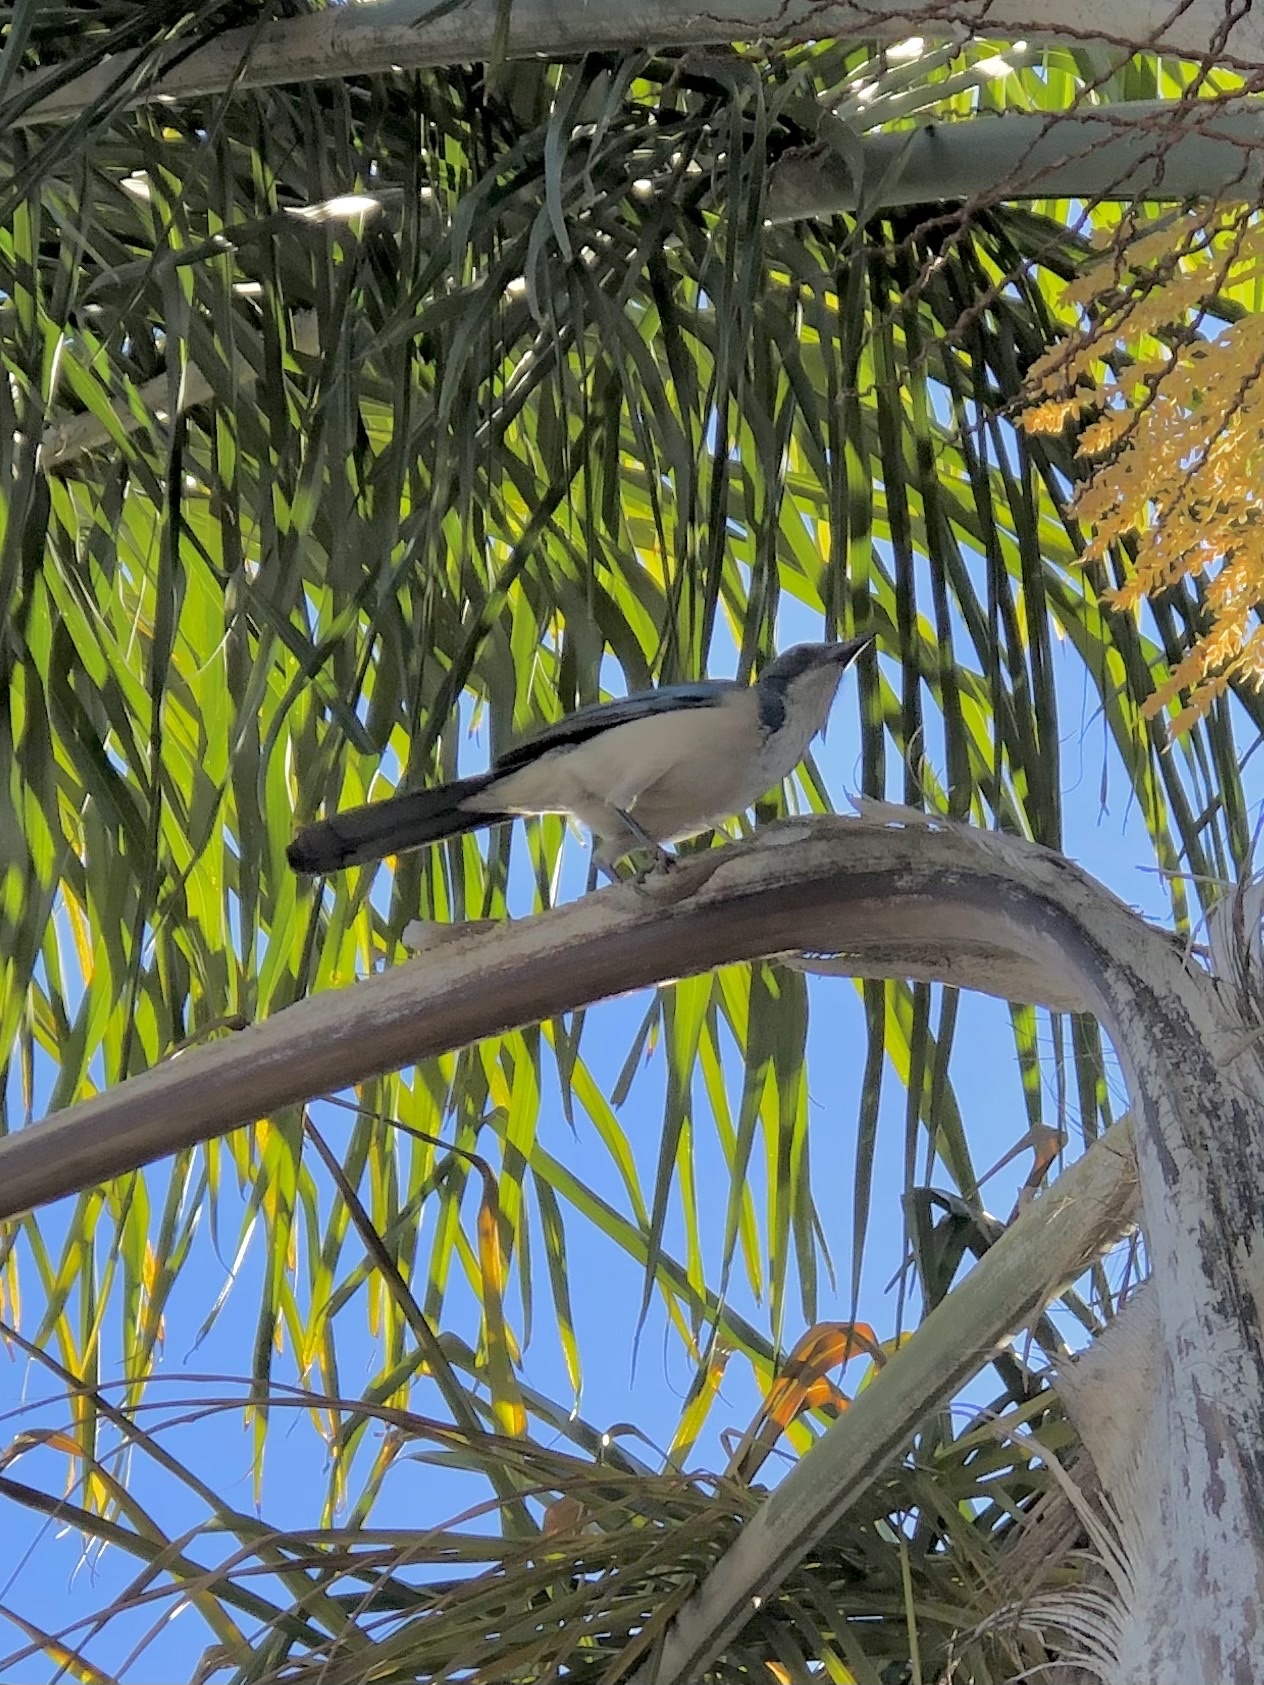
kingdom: Animalia
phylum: Chordata
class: Aves
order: Passeriformes
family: Corvidae
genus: Aphelocoma
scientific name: Aphelocoma californica
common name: California scrub-jay
